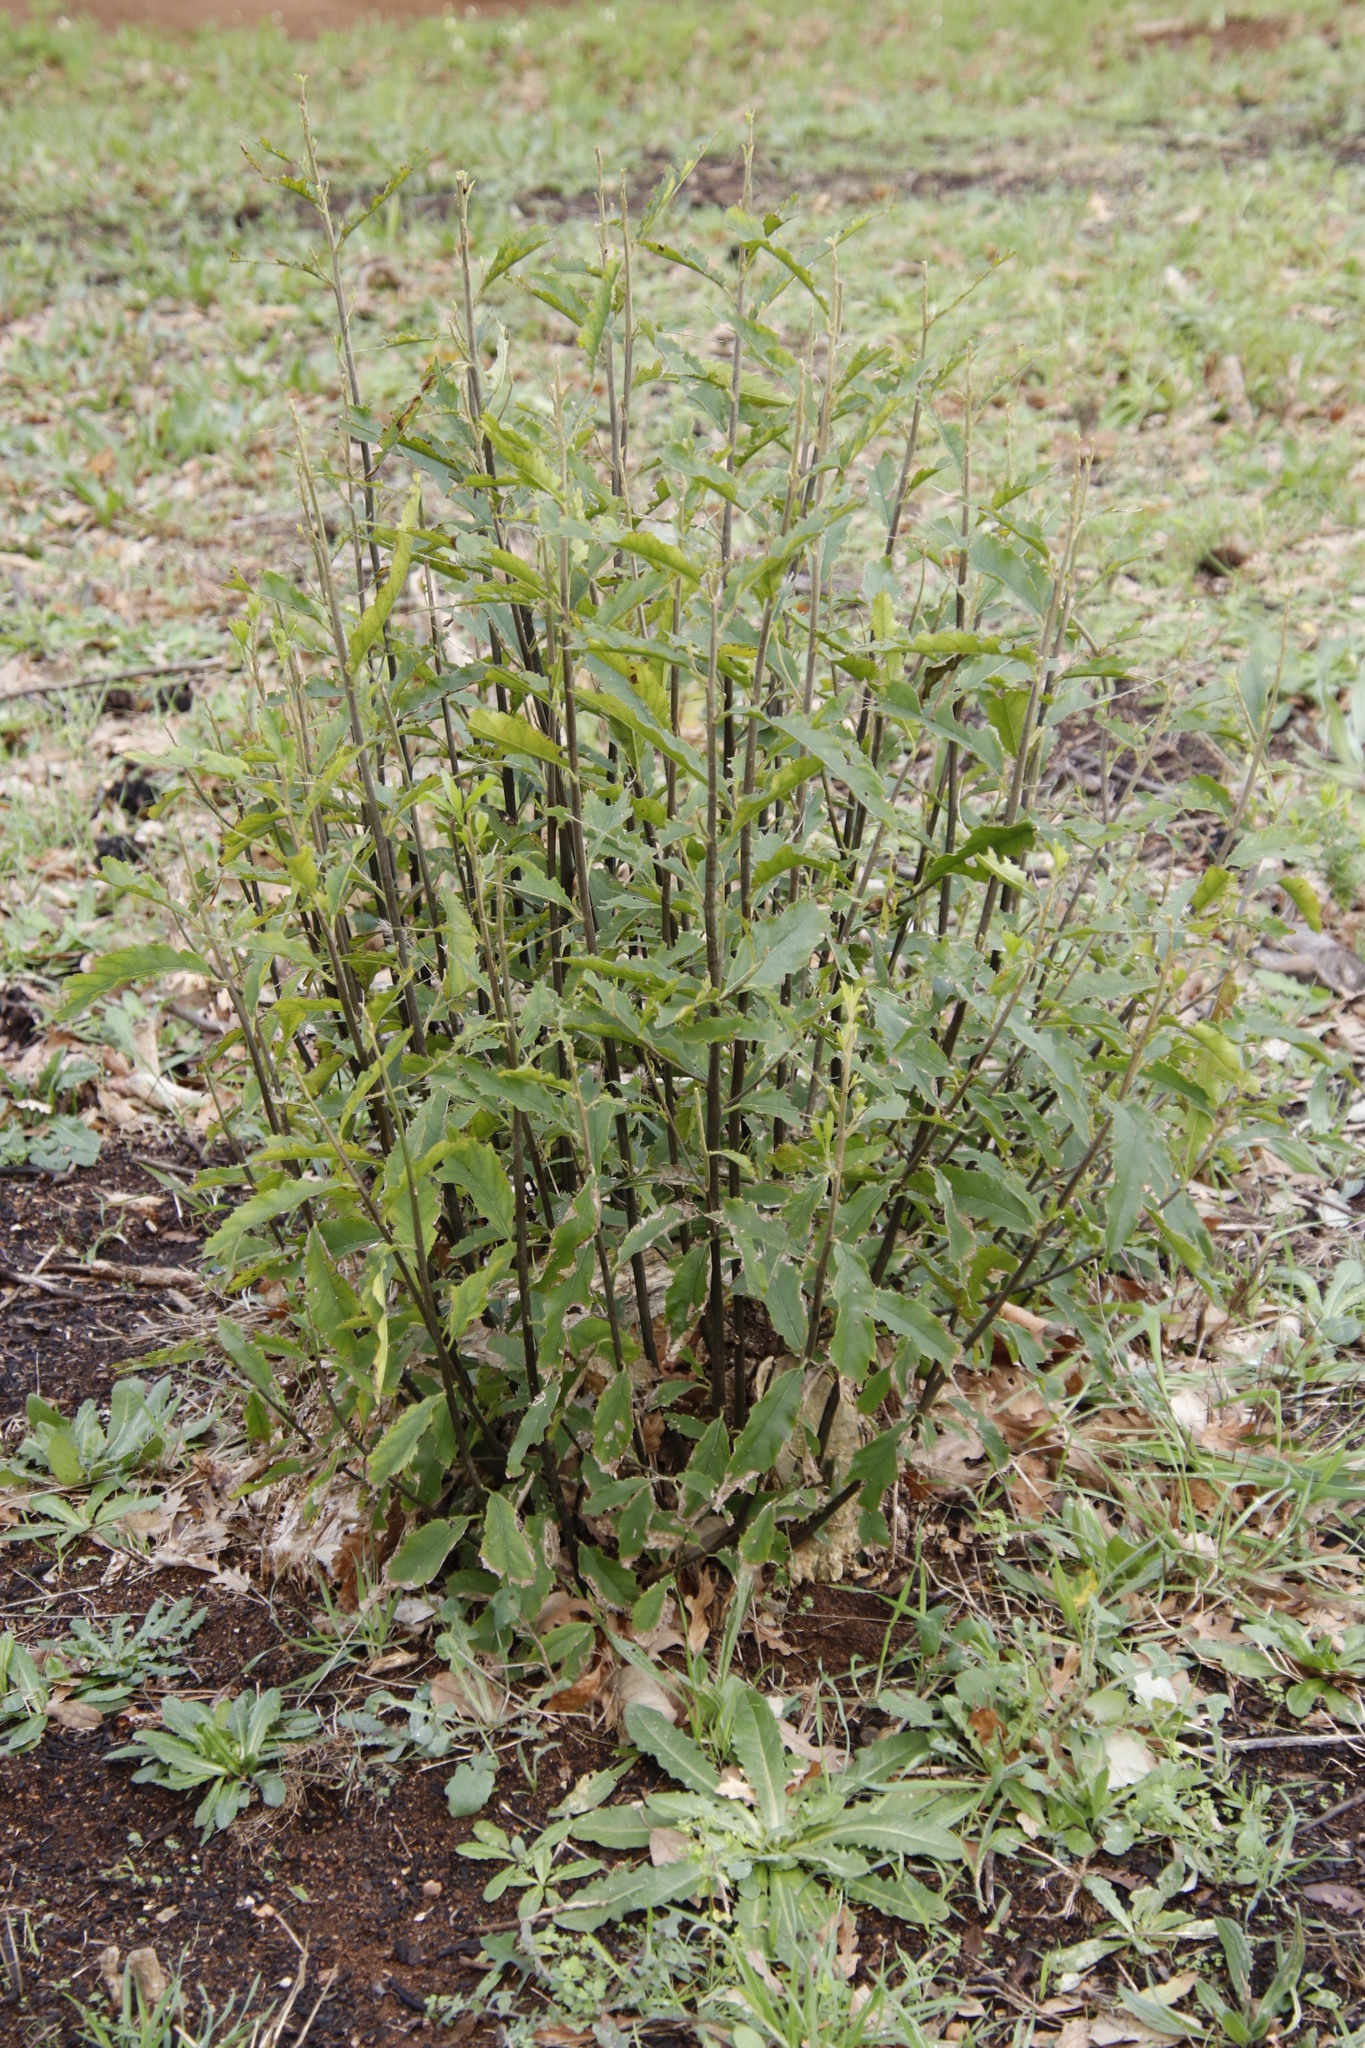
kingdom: Plantae
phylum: Tracheophyta
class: Magnoliopsida
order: Malpighiales
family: Achariaceae
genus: Kiggelaria
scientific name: Kiggelaria africana
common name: Wild peach
